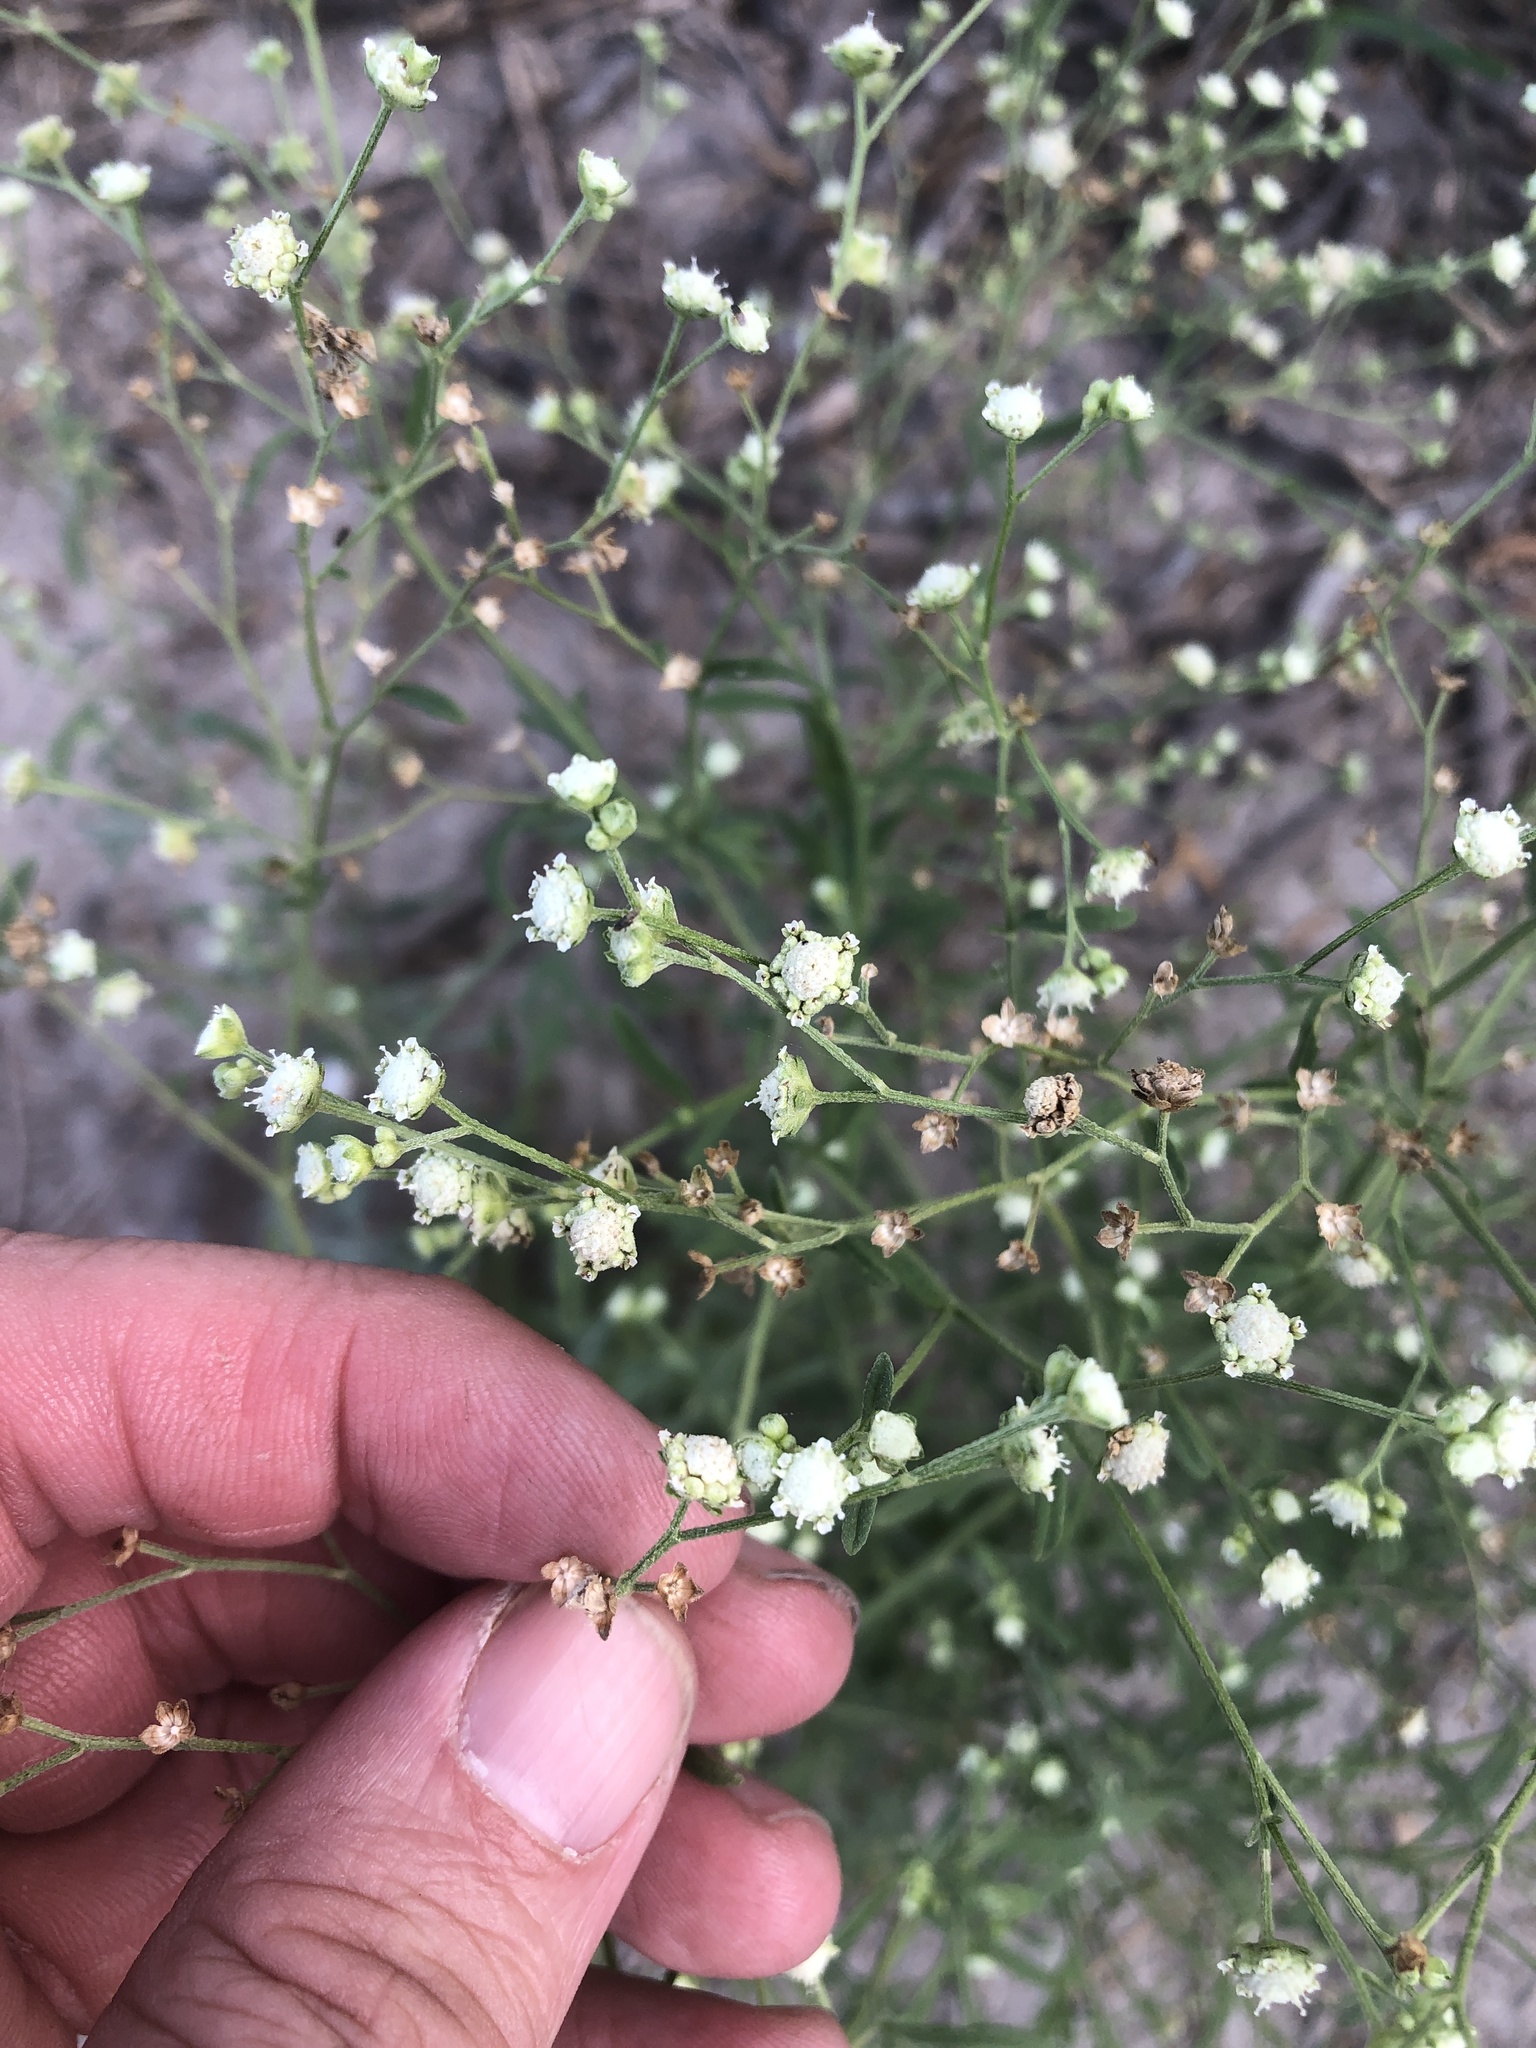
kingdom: Plantae
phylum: Tracheophyta
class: Magnoliopsida
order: Asterales
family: Asteraceae
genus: Parthenium
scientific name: Parthenium hysterophorus
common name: Santa maria feverfew
